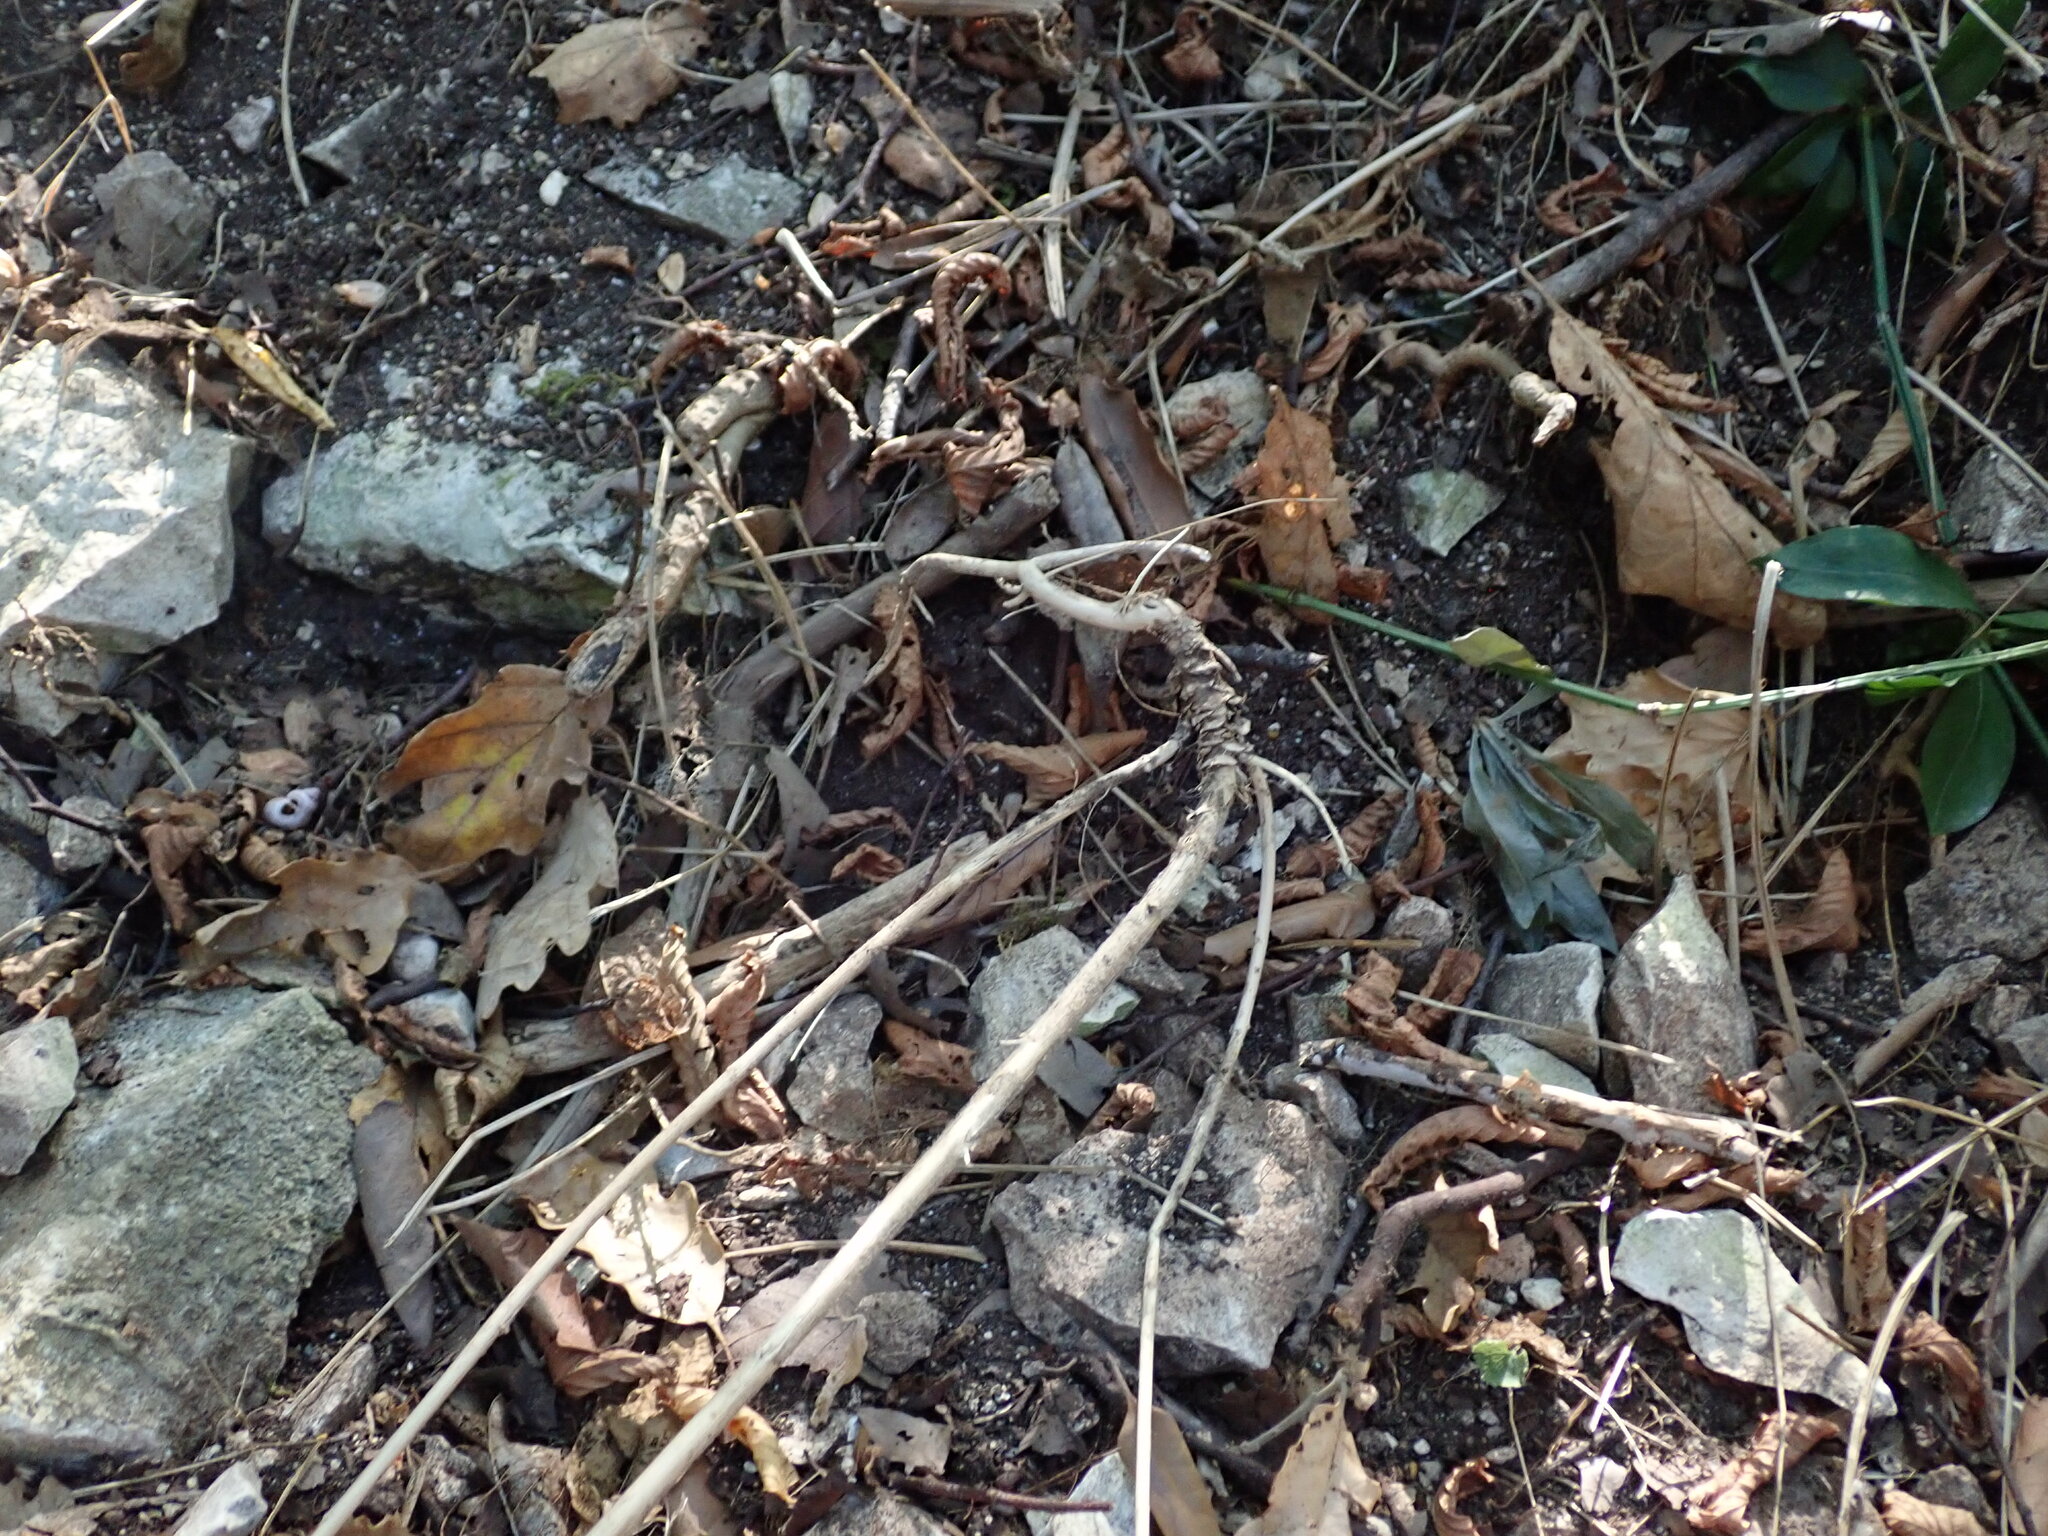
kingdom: Plantae
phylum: Tracheophyta
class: Magnoliopsida
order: Brassicales
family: Brassicaceae
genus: Pseudoturritis
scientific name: Pseudoturritis turrita
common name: Tower cress
